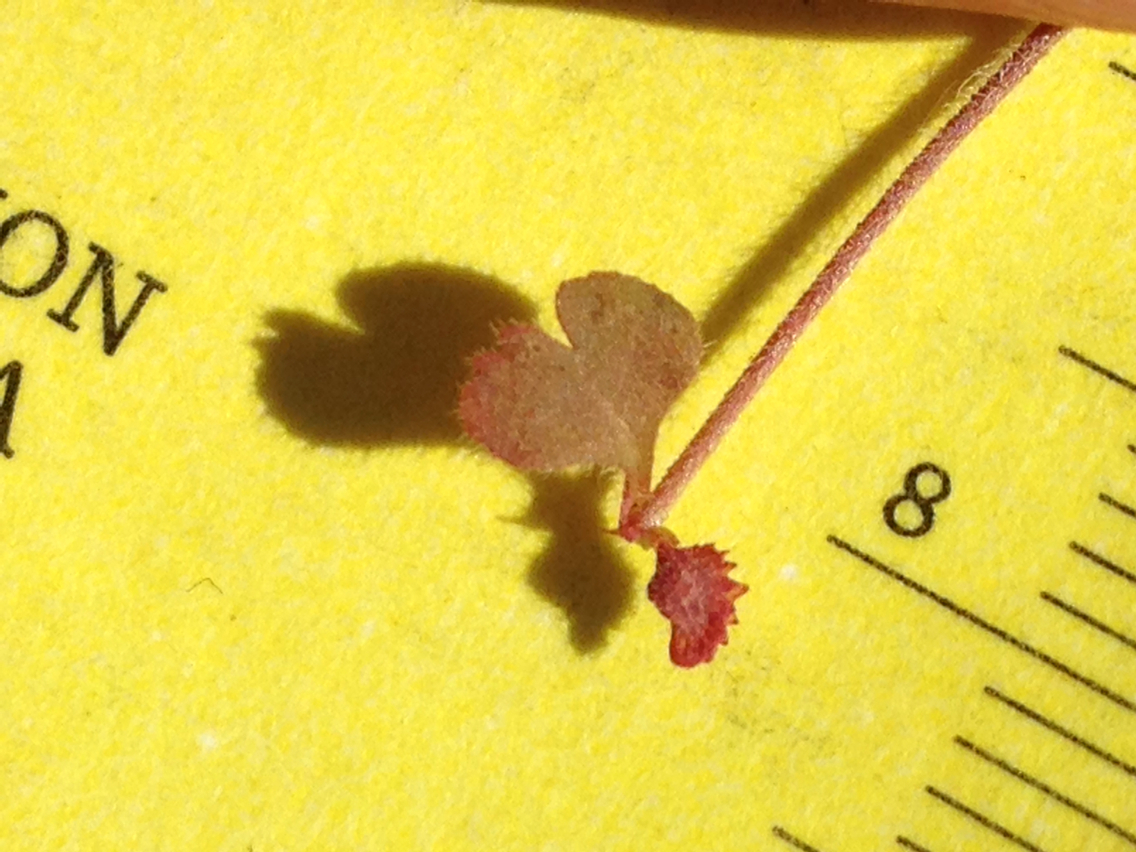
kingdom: Plantae
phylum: Tracheophyta
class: Magnoliopsida
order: Caryophyllales
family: Polygonaceae
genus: Pterostegia
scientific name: Pterostegia drymarioides
